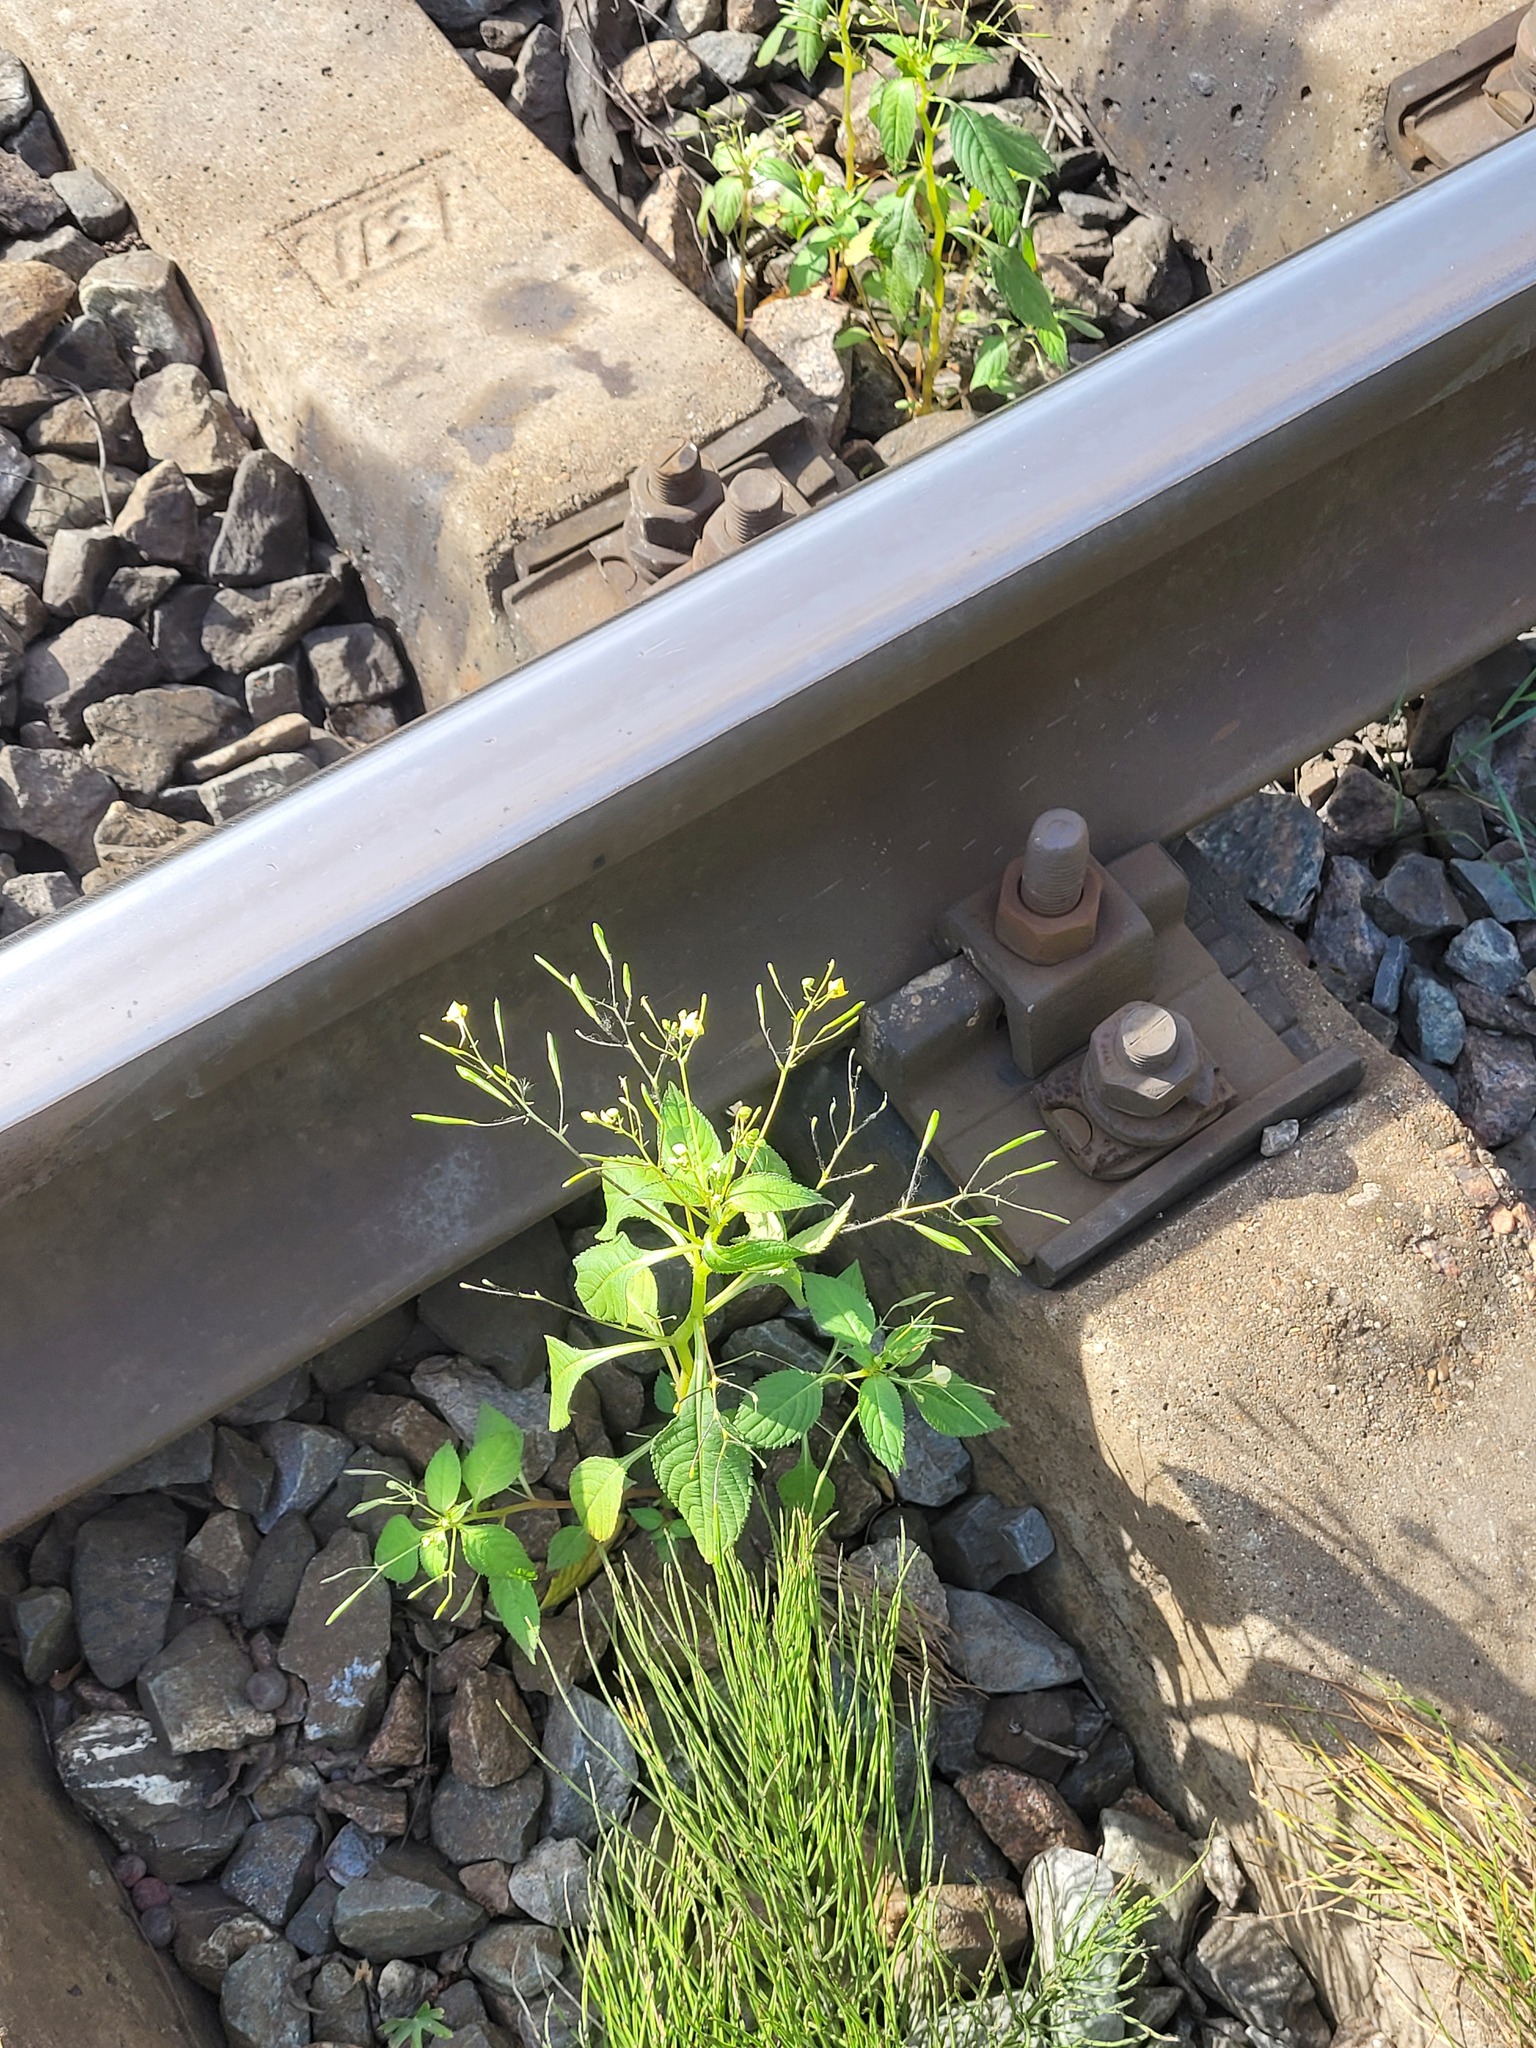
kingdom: Plantae
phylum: Tracheophyta
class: Magnoliopsida
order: Ericales
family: Balsaminaceae
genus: Impatiens
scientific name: Impatiens parviflora
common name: Small balsam
